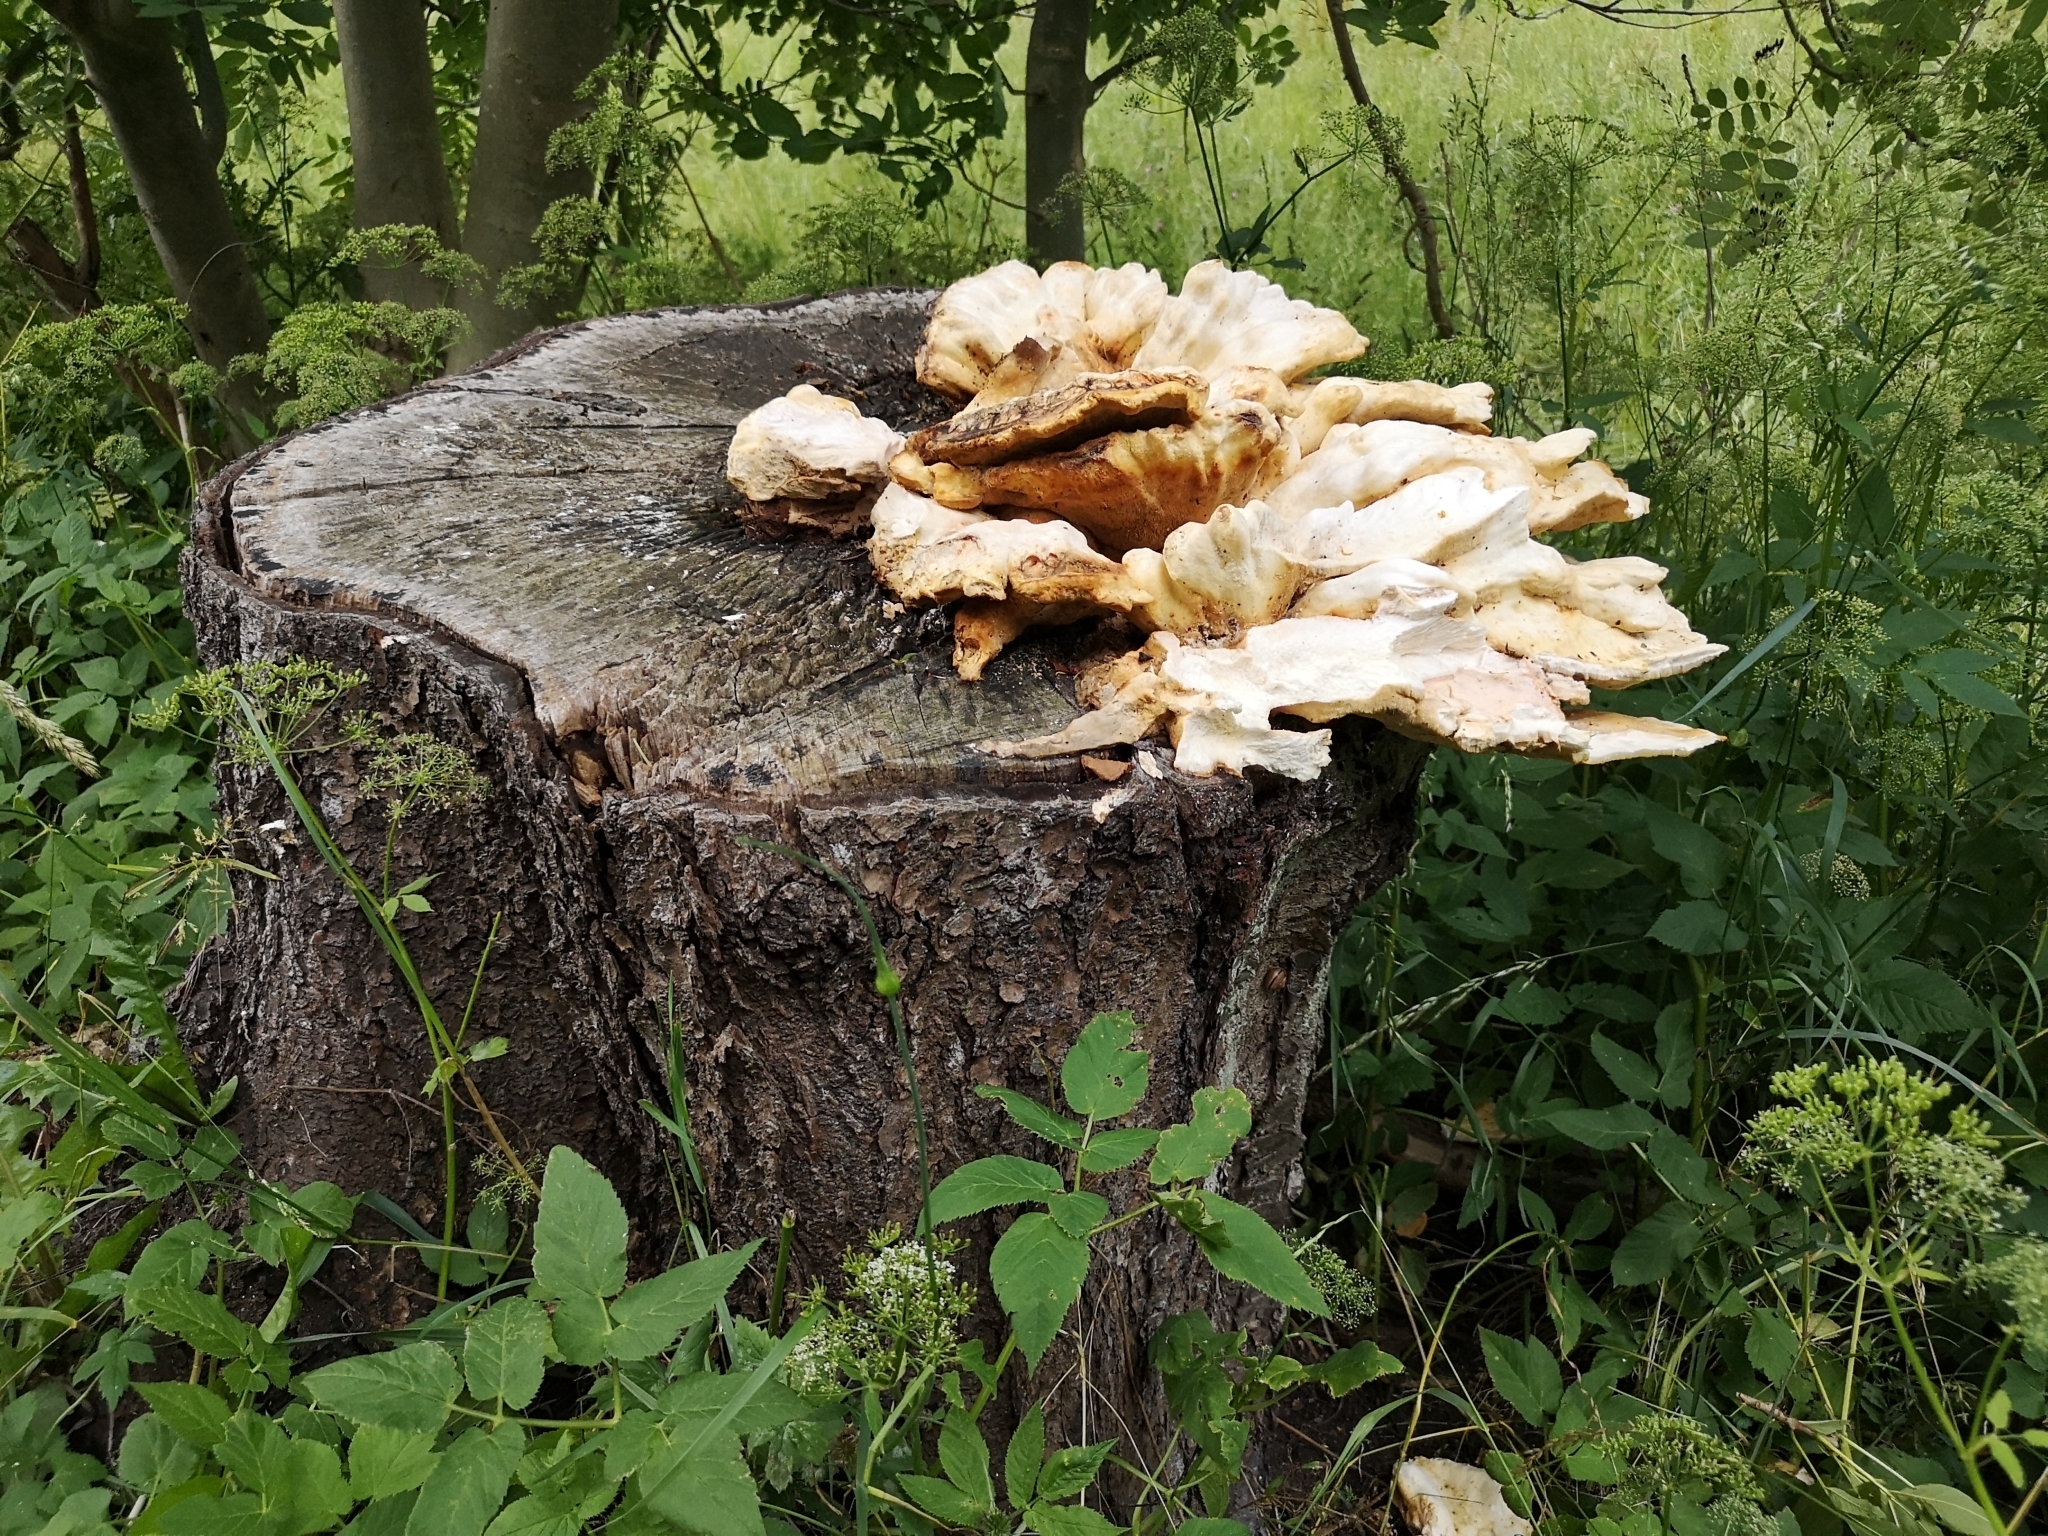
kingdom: Fungi
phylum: Basidiomycota
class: Agaricomycetes
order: Polyporales
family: Laetiporaceae
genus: Laetiporus
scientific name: Laetiporus sulphureus
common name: Chicken of the woods
